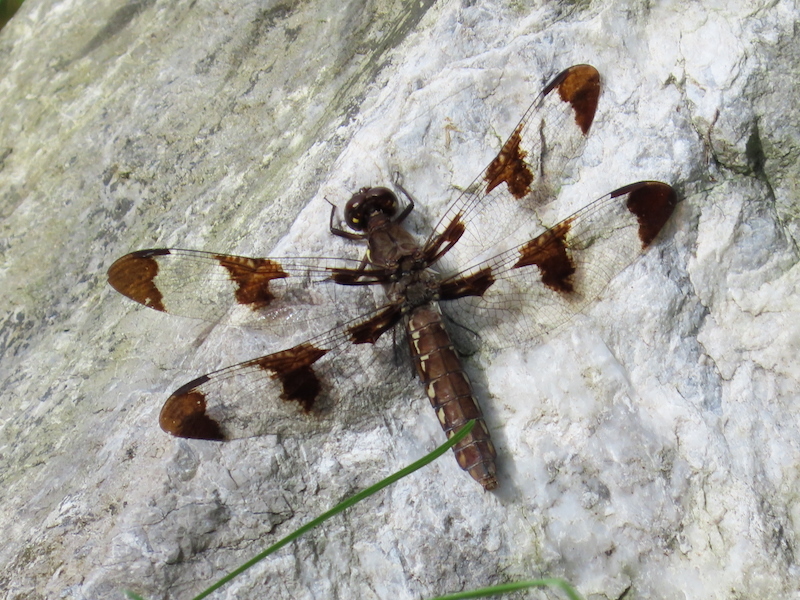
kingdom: Animalia
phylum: Arthropoda
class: Insecta
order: Odonata
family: Libellulidae
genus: Plathemis
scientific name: Plathemis lydia
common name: Common whitetail
